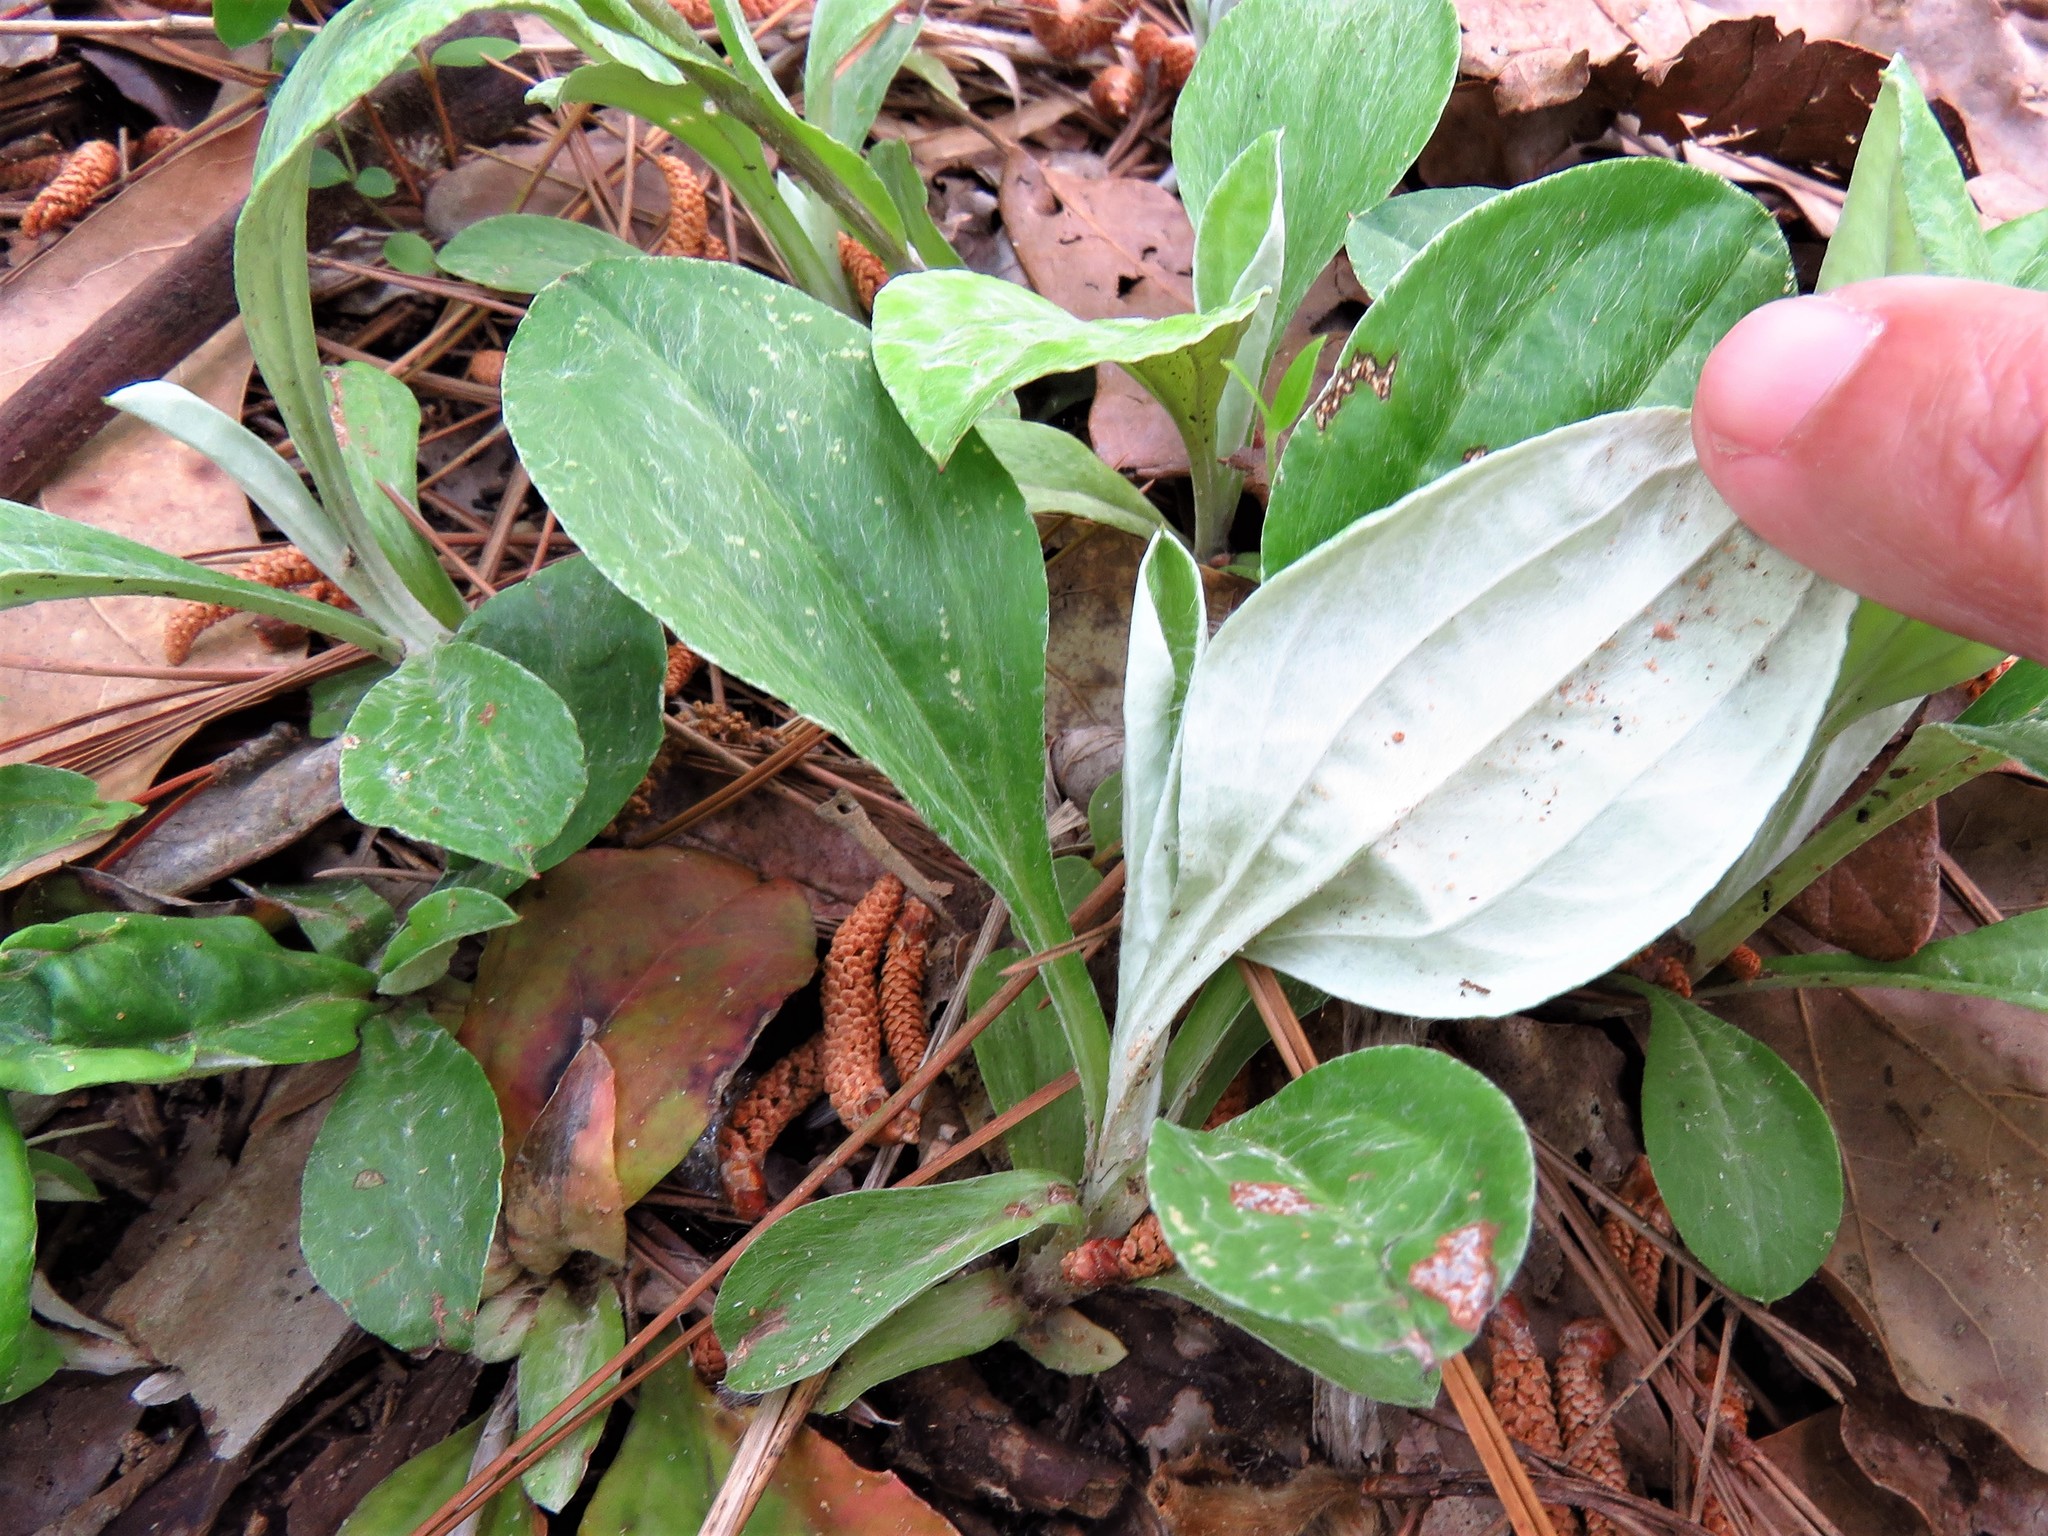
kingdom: Plantae
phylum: Tracheophyta
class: Magnoliopsida
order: Asterales
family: Asteraceae
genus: Antennaria
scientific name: Antennaria parlinii
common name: Parlin's pussytoes
